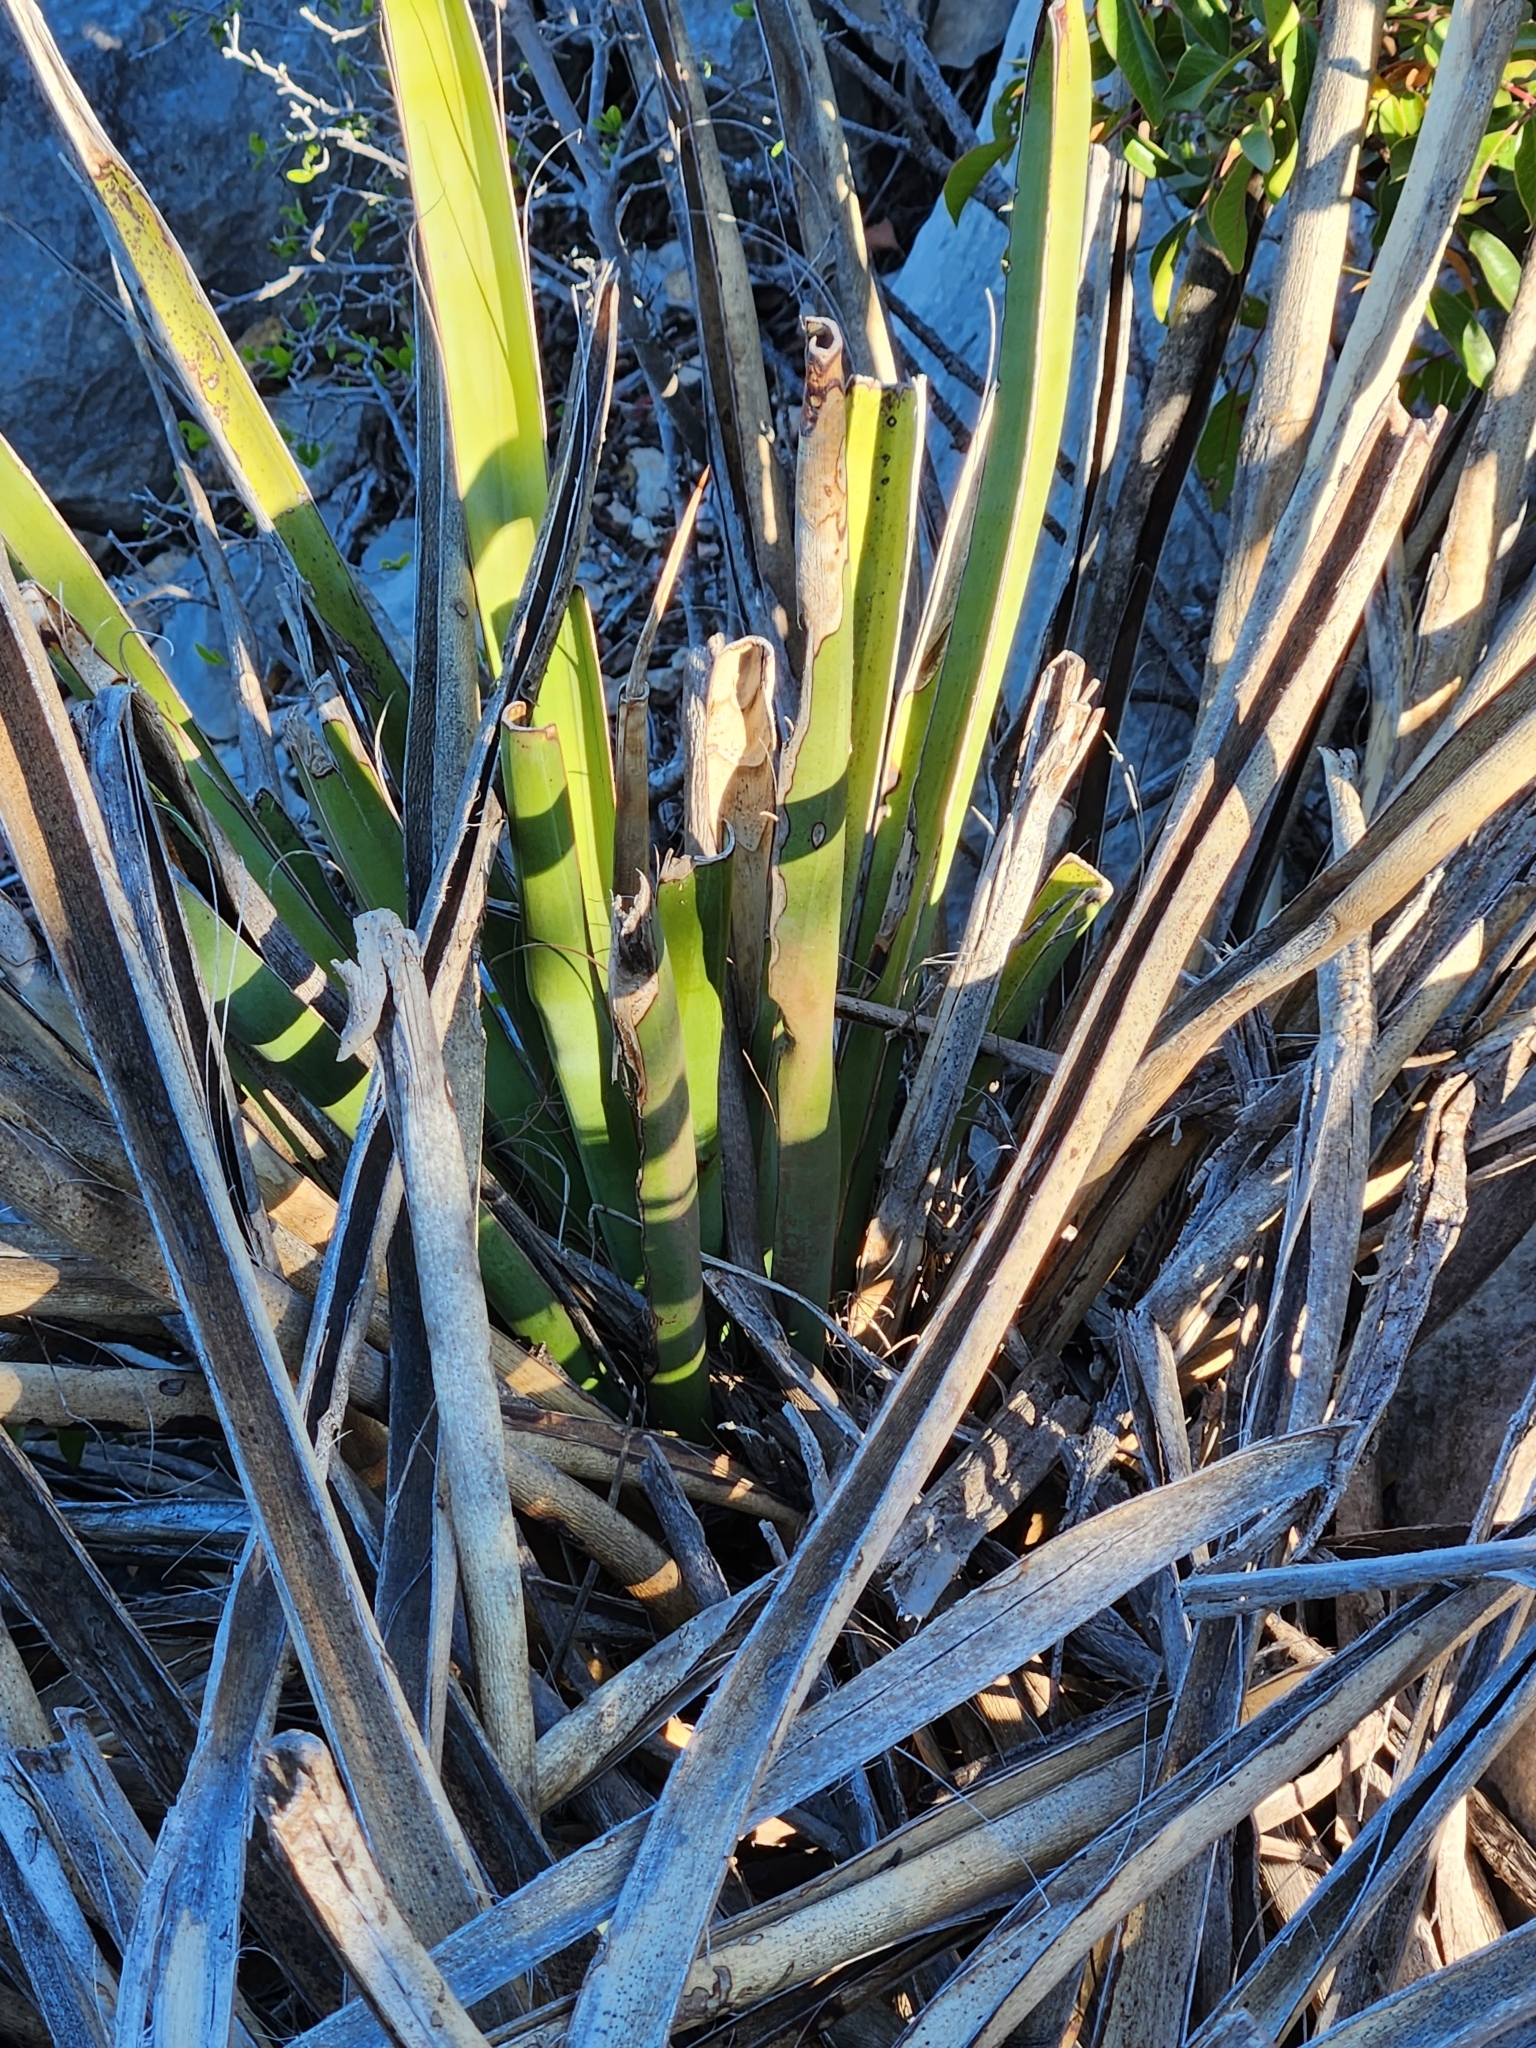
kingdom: Plantae
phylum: Tracheophyta
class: Liliopsida
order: Asparagales
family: Asparagaceae
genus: Yucca
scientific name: Yucca treculiana
